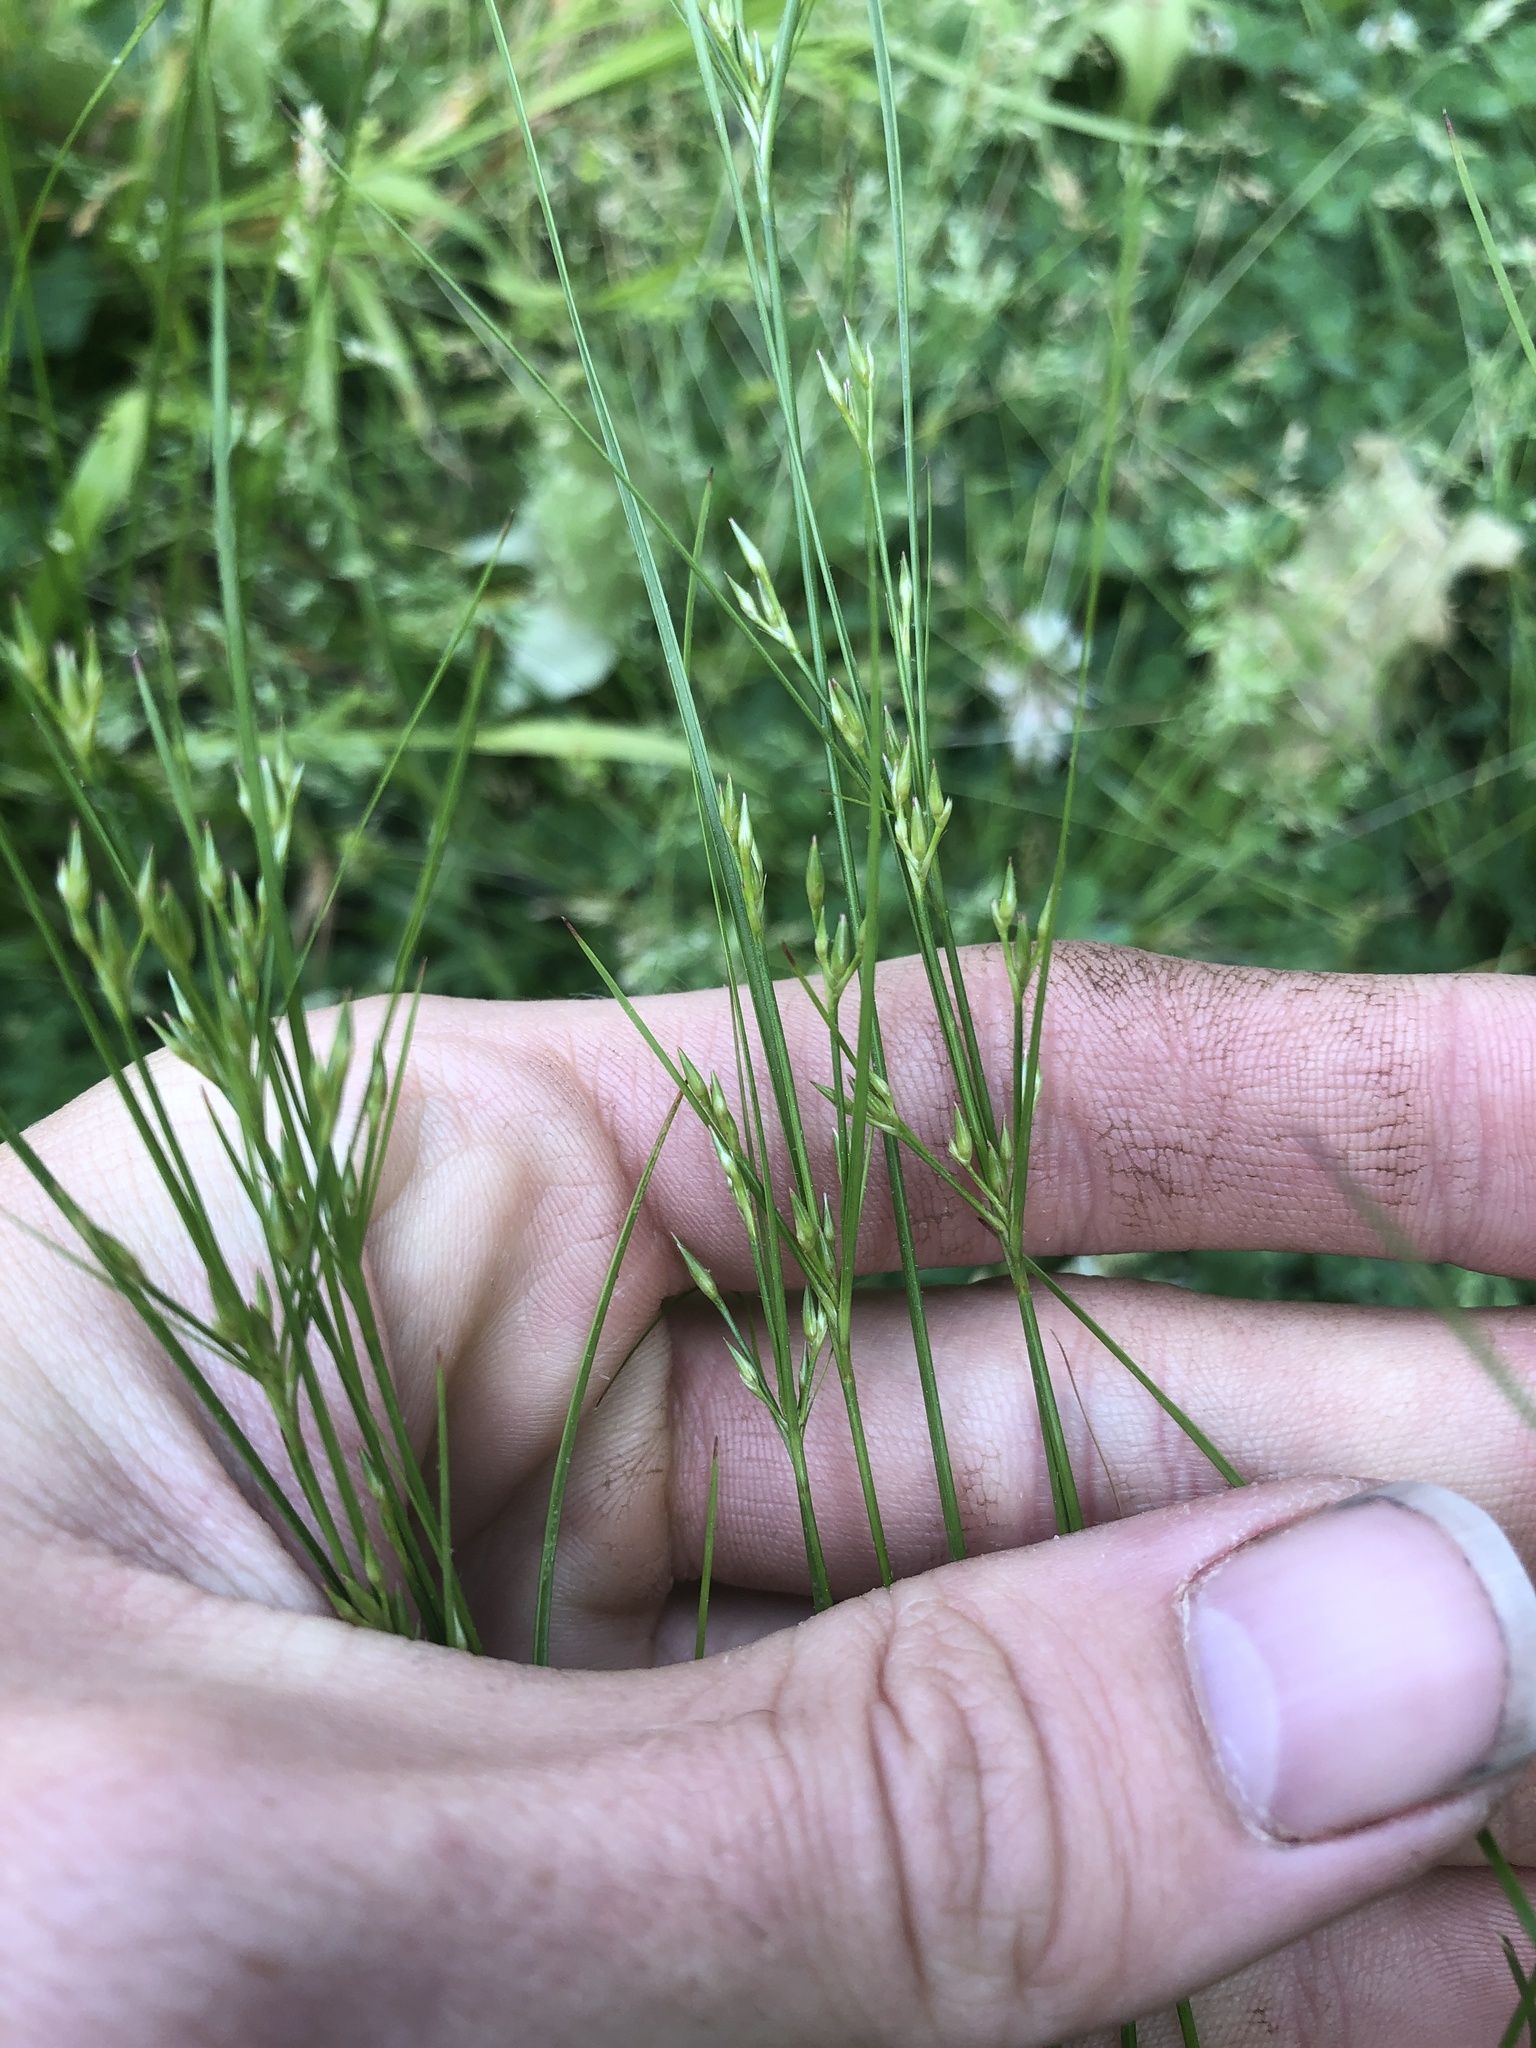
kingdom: Plantae
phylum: Tracheophyta
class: Liliopsida
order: Poales
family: Juncaceae
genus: Juncus
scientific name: Juncus tenuis
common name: Slender rush
